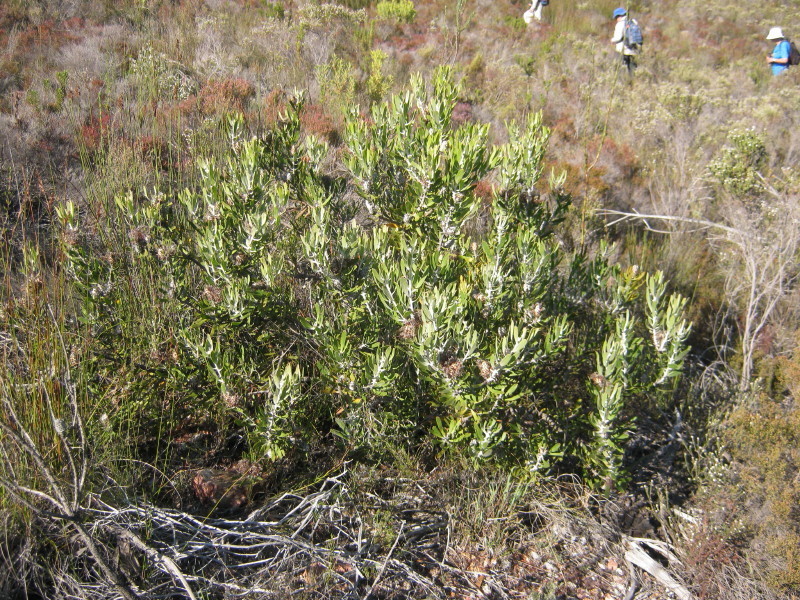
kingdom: Plantae
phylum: Tracheophyta
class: Magnoliopsida
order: Proteales
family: Proteaceae
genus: Leucospermum
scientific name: Leucospermum cuneiforme
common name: Common pincushion
